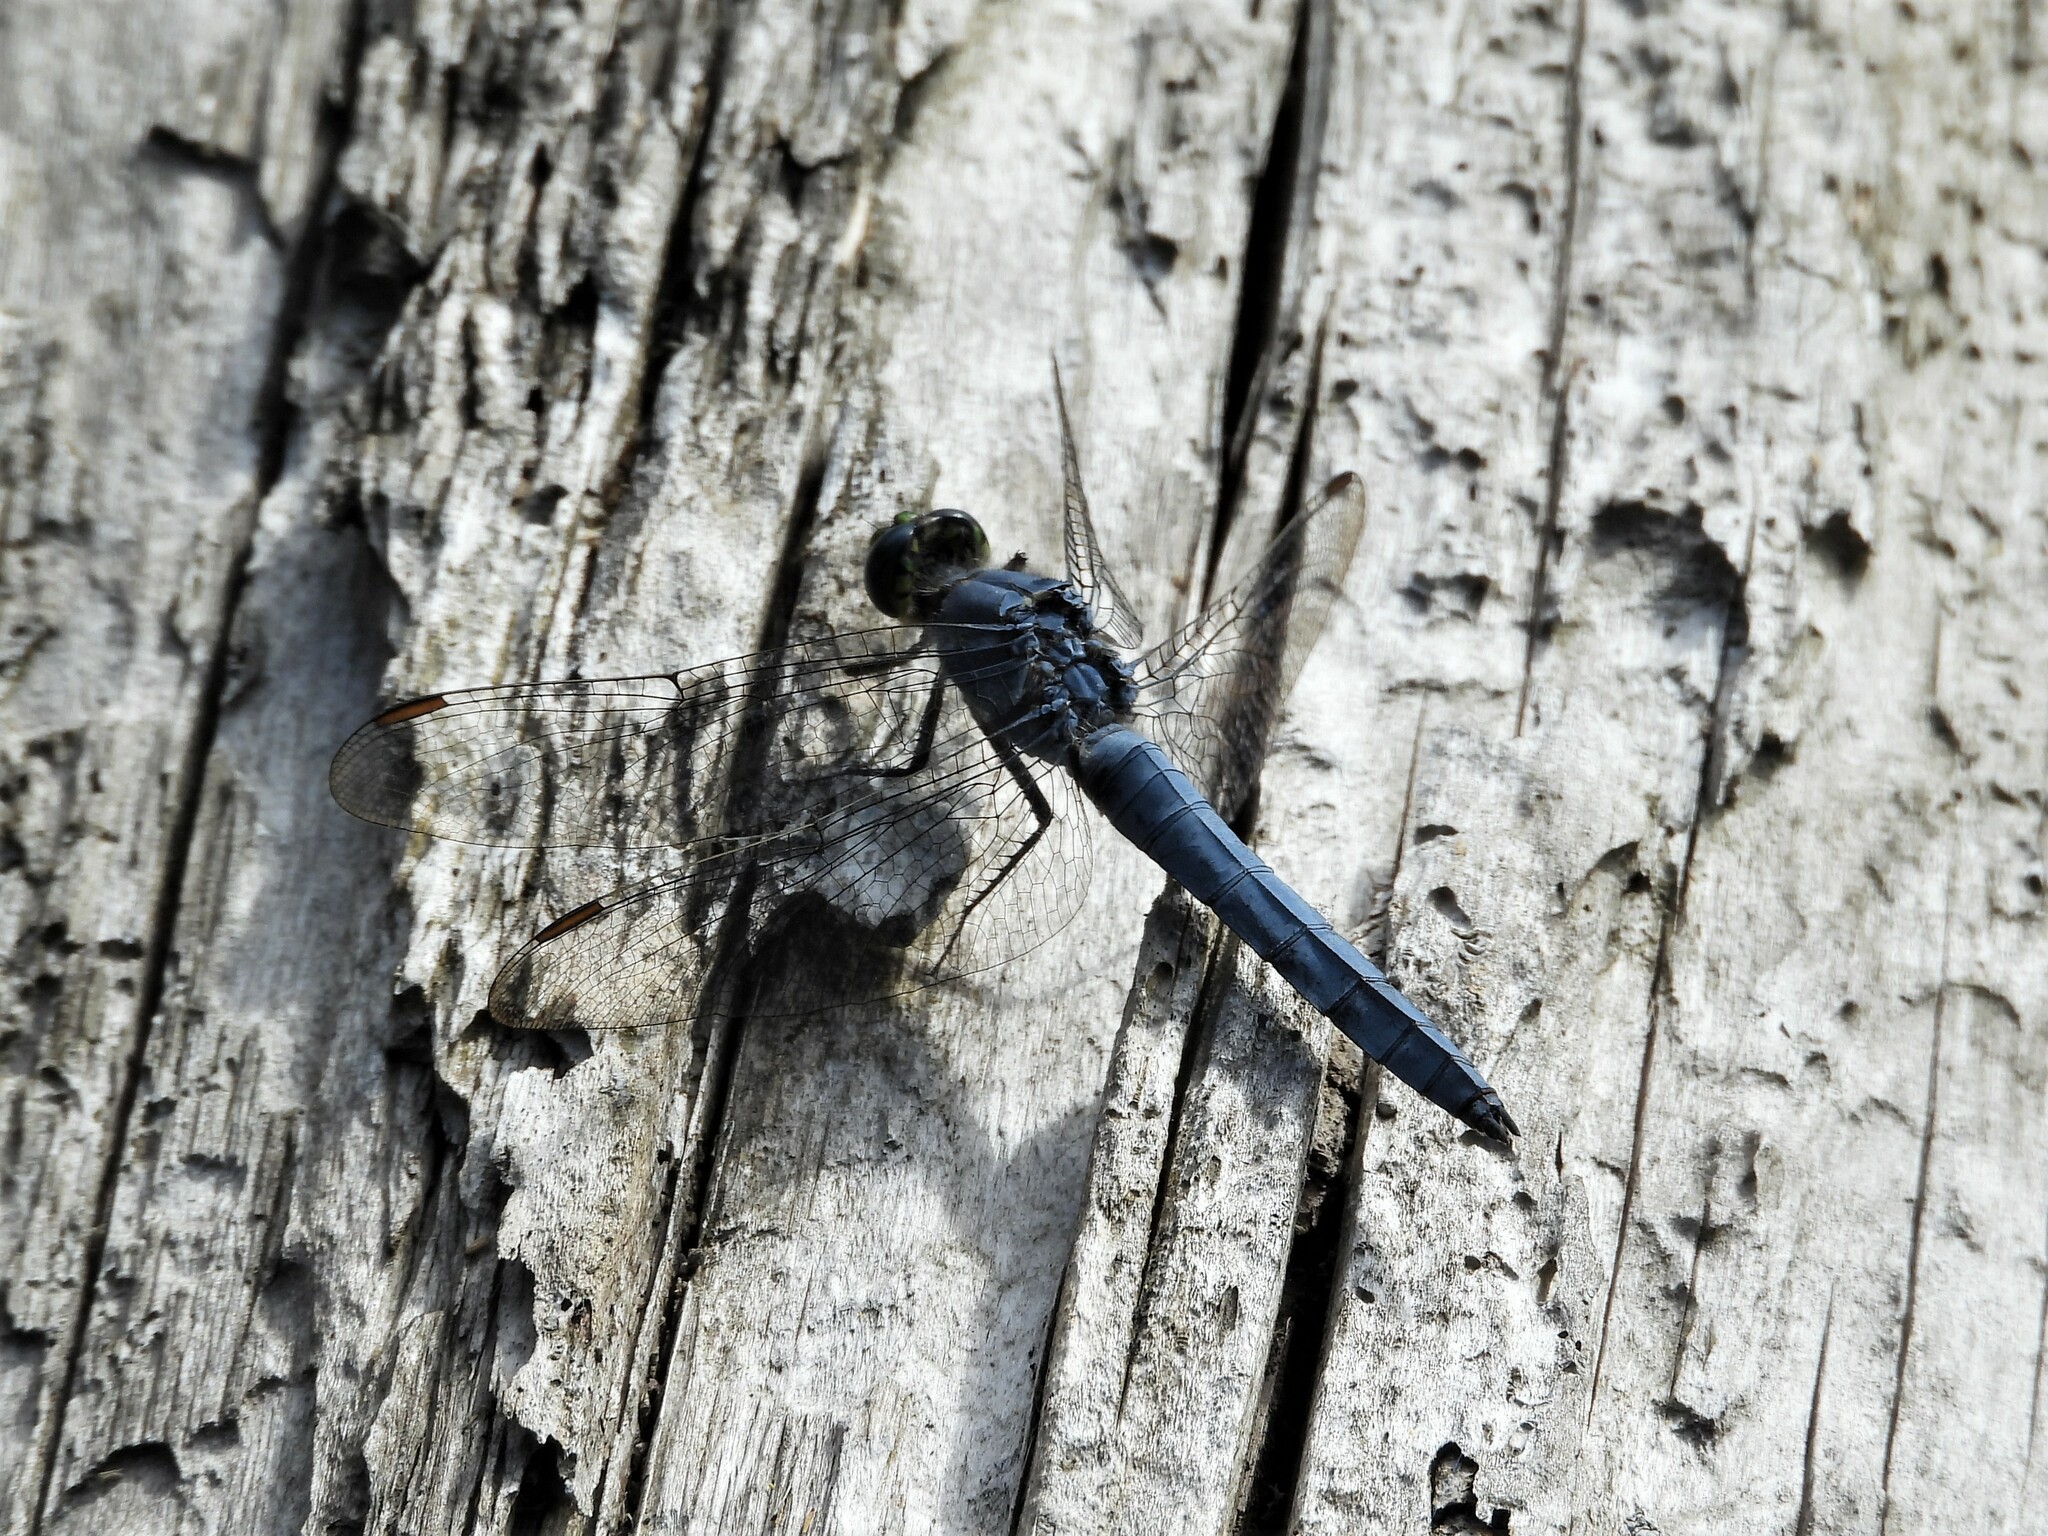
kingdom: Animalia
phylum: Arthropoda
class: Insecta
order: Odonata
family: Libellulidae
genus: Erythemis
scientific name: Erythemis collocata
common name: Western pondhawk
